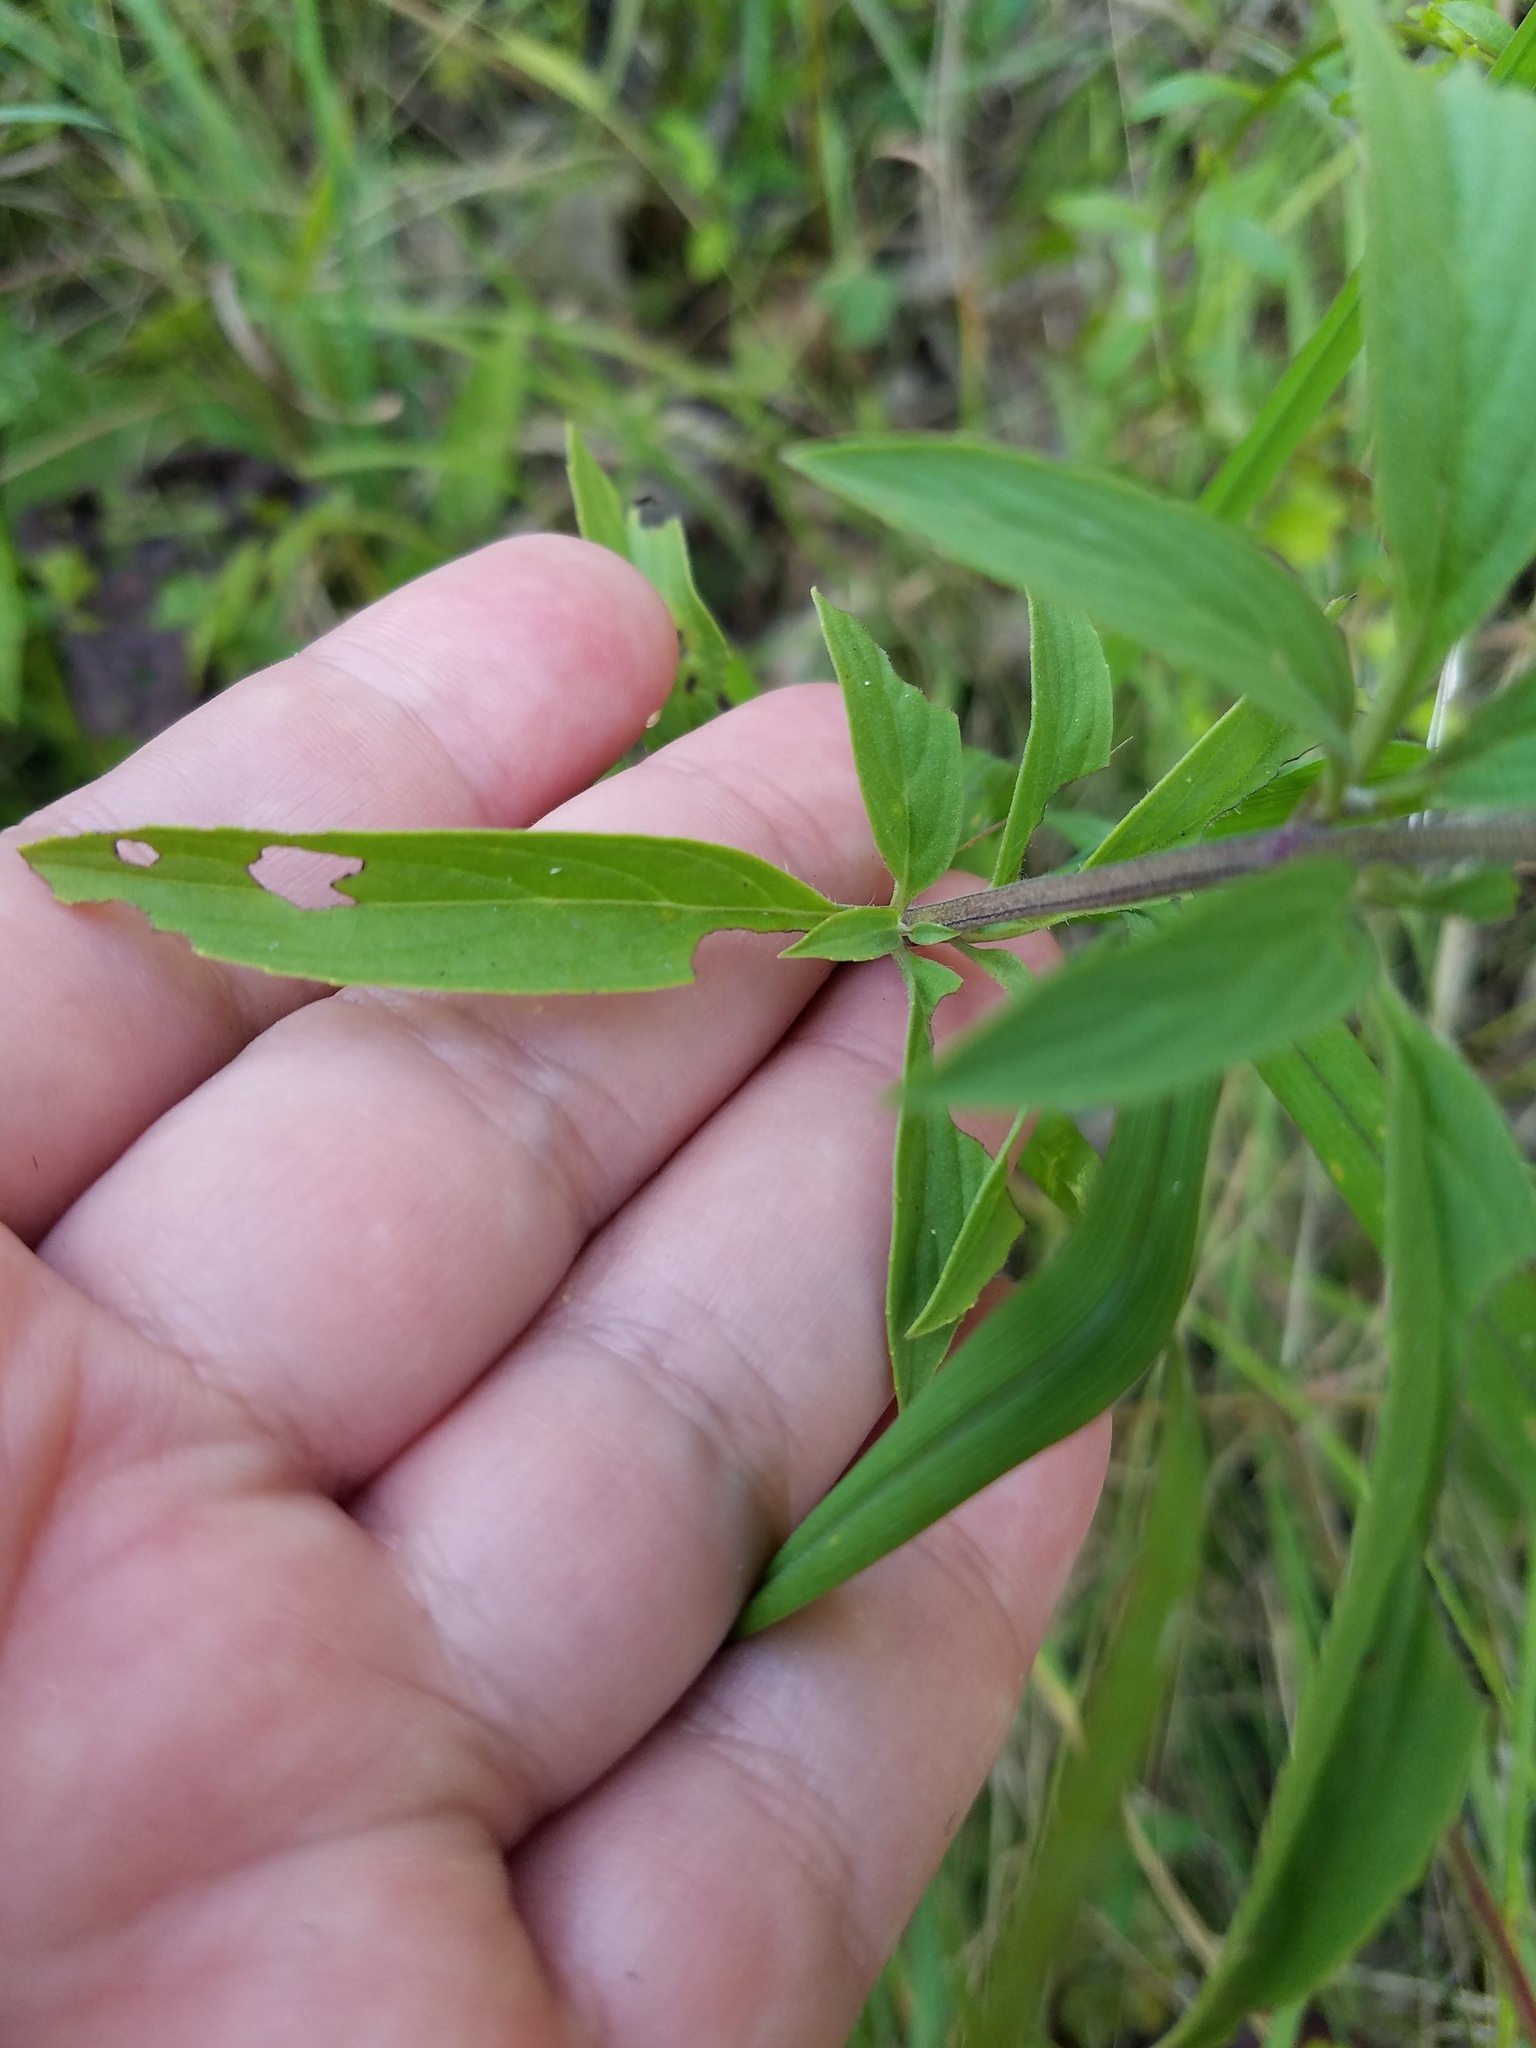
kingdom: Plantae
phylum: Tracheophyta
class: Magnoliopsida
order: Lamiales
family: Lamiaceae
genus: Monarda
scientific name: Monarda punctata
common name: Dotted monarda
